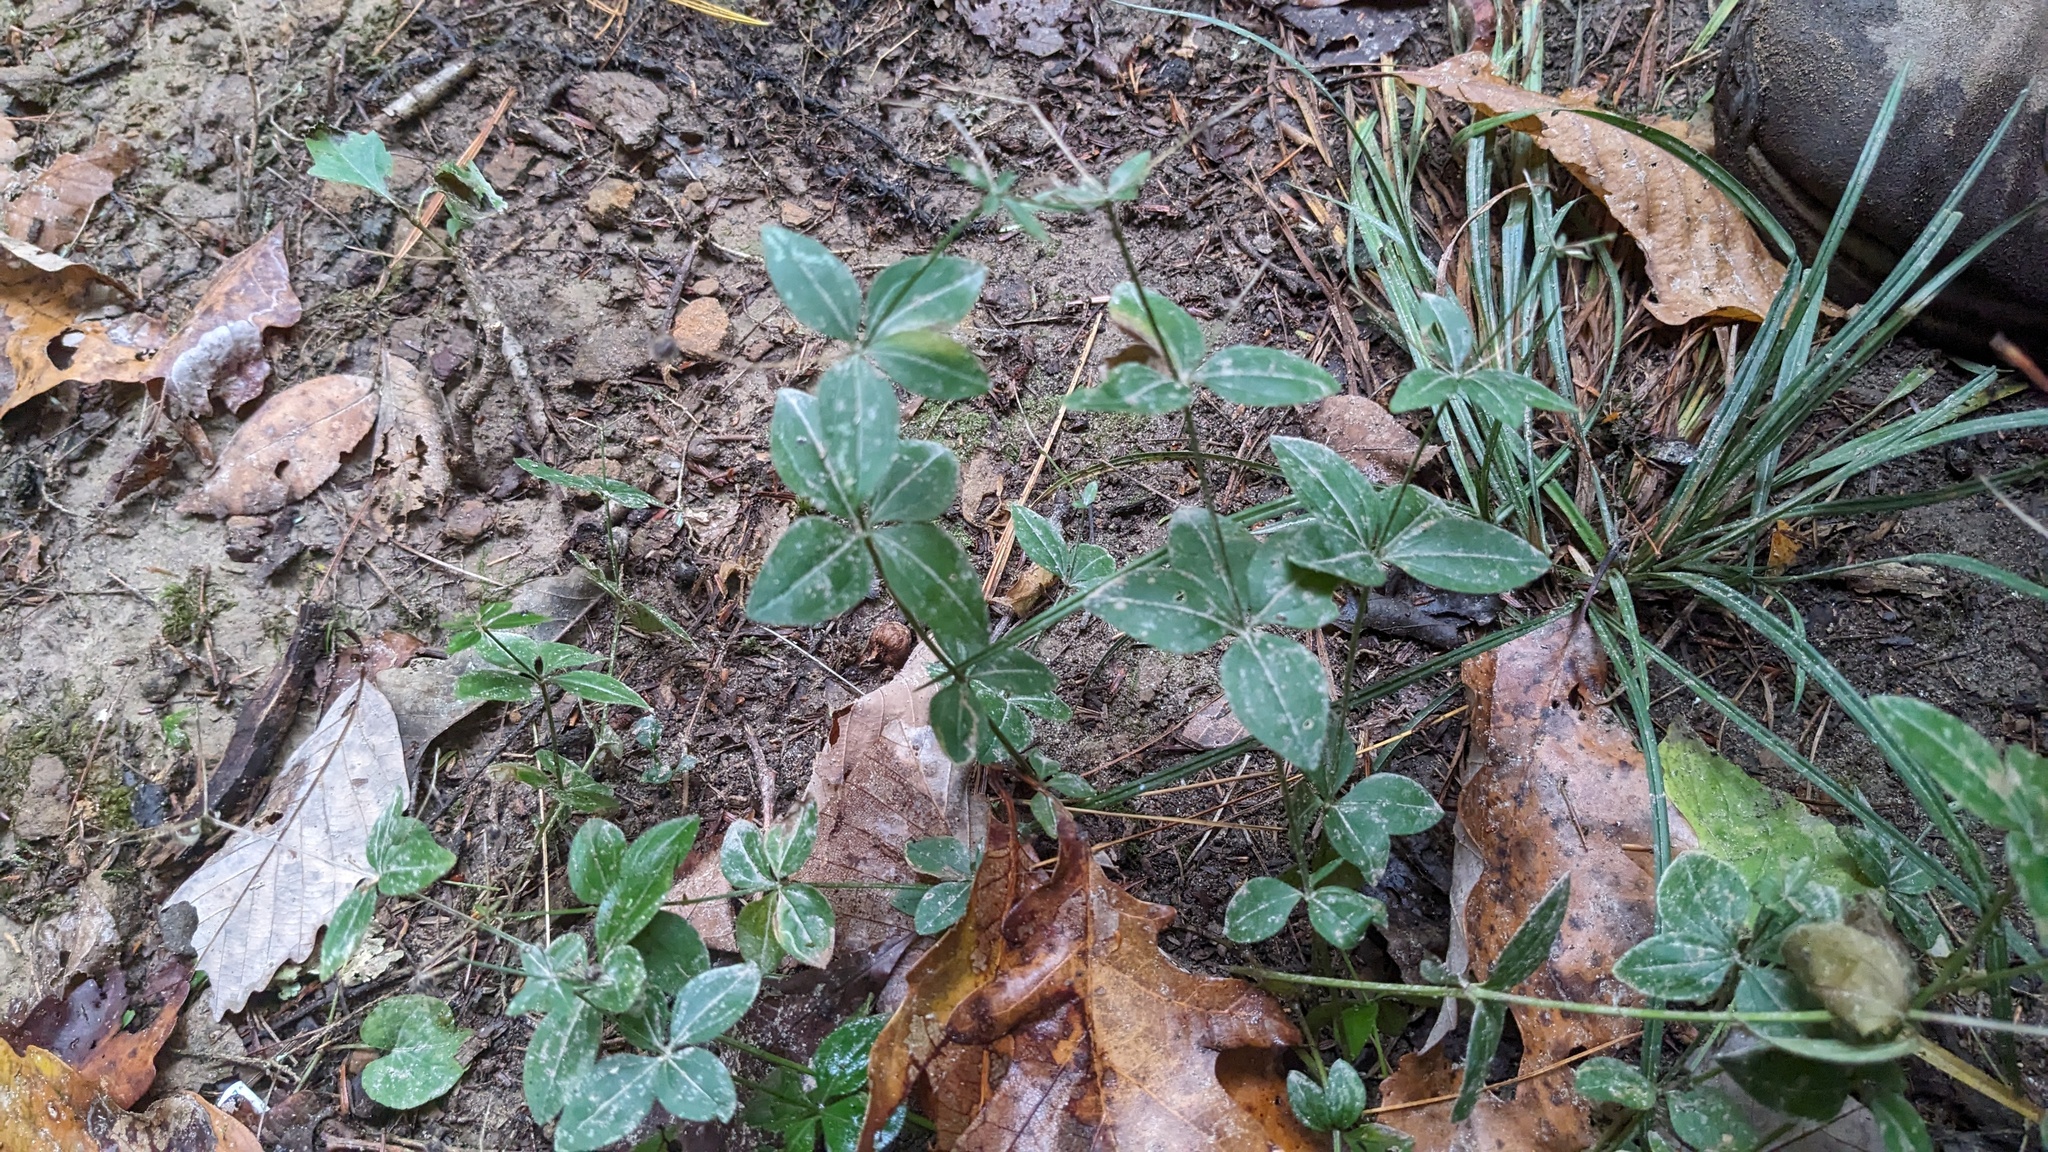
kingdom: Plantae
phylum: Tracheophyta
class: Magnoliopsida
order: Gentianales
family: Rubiaceae
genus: Galium
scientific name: Galium circaezans
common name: Forest bedstraw
